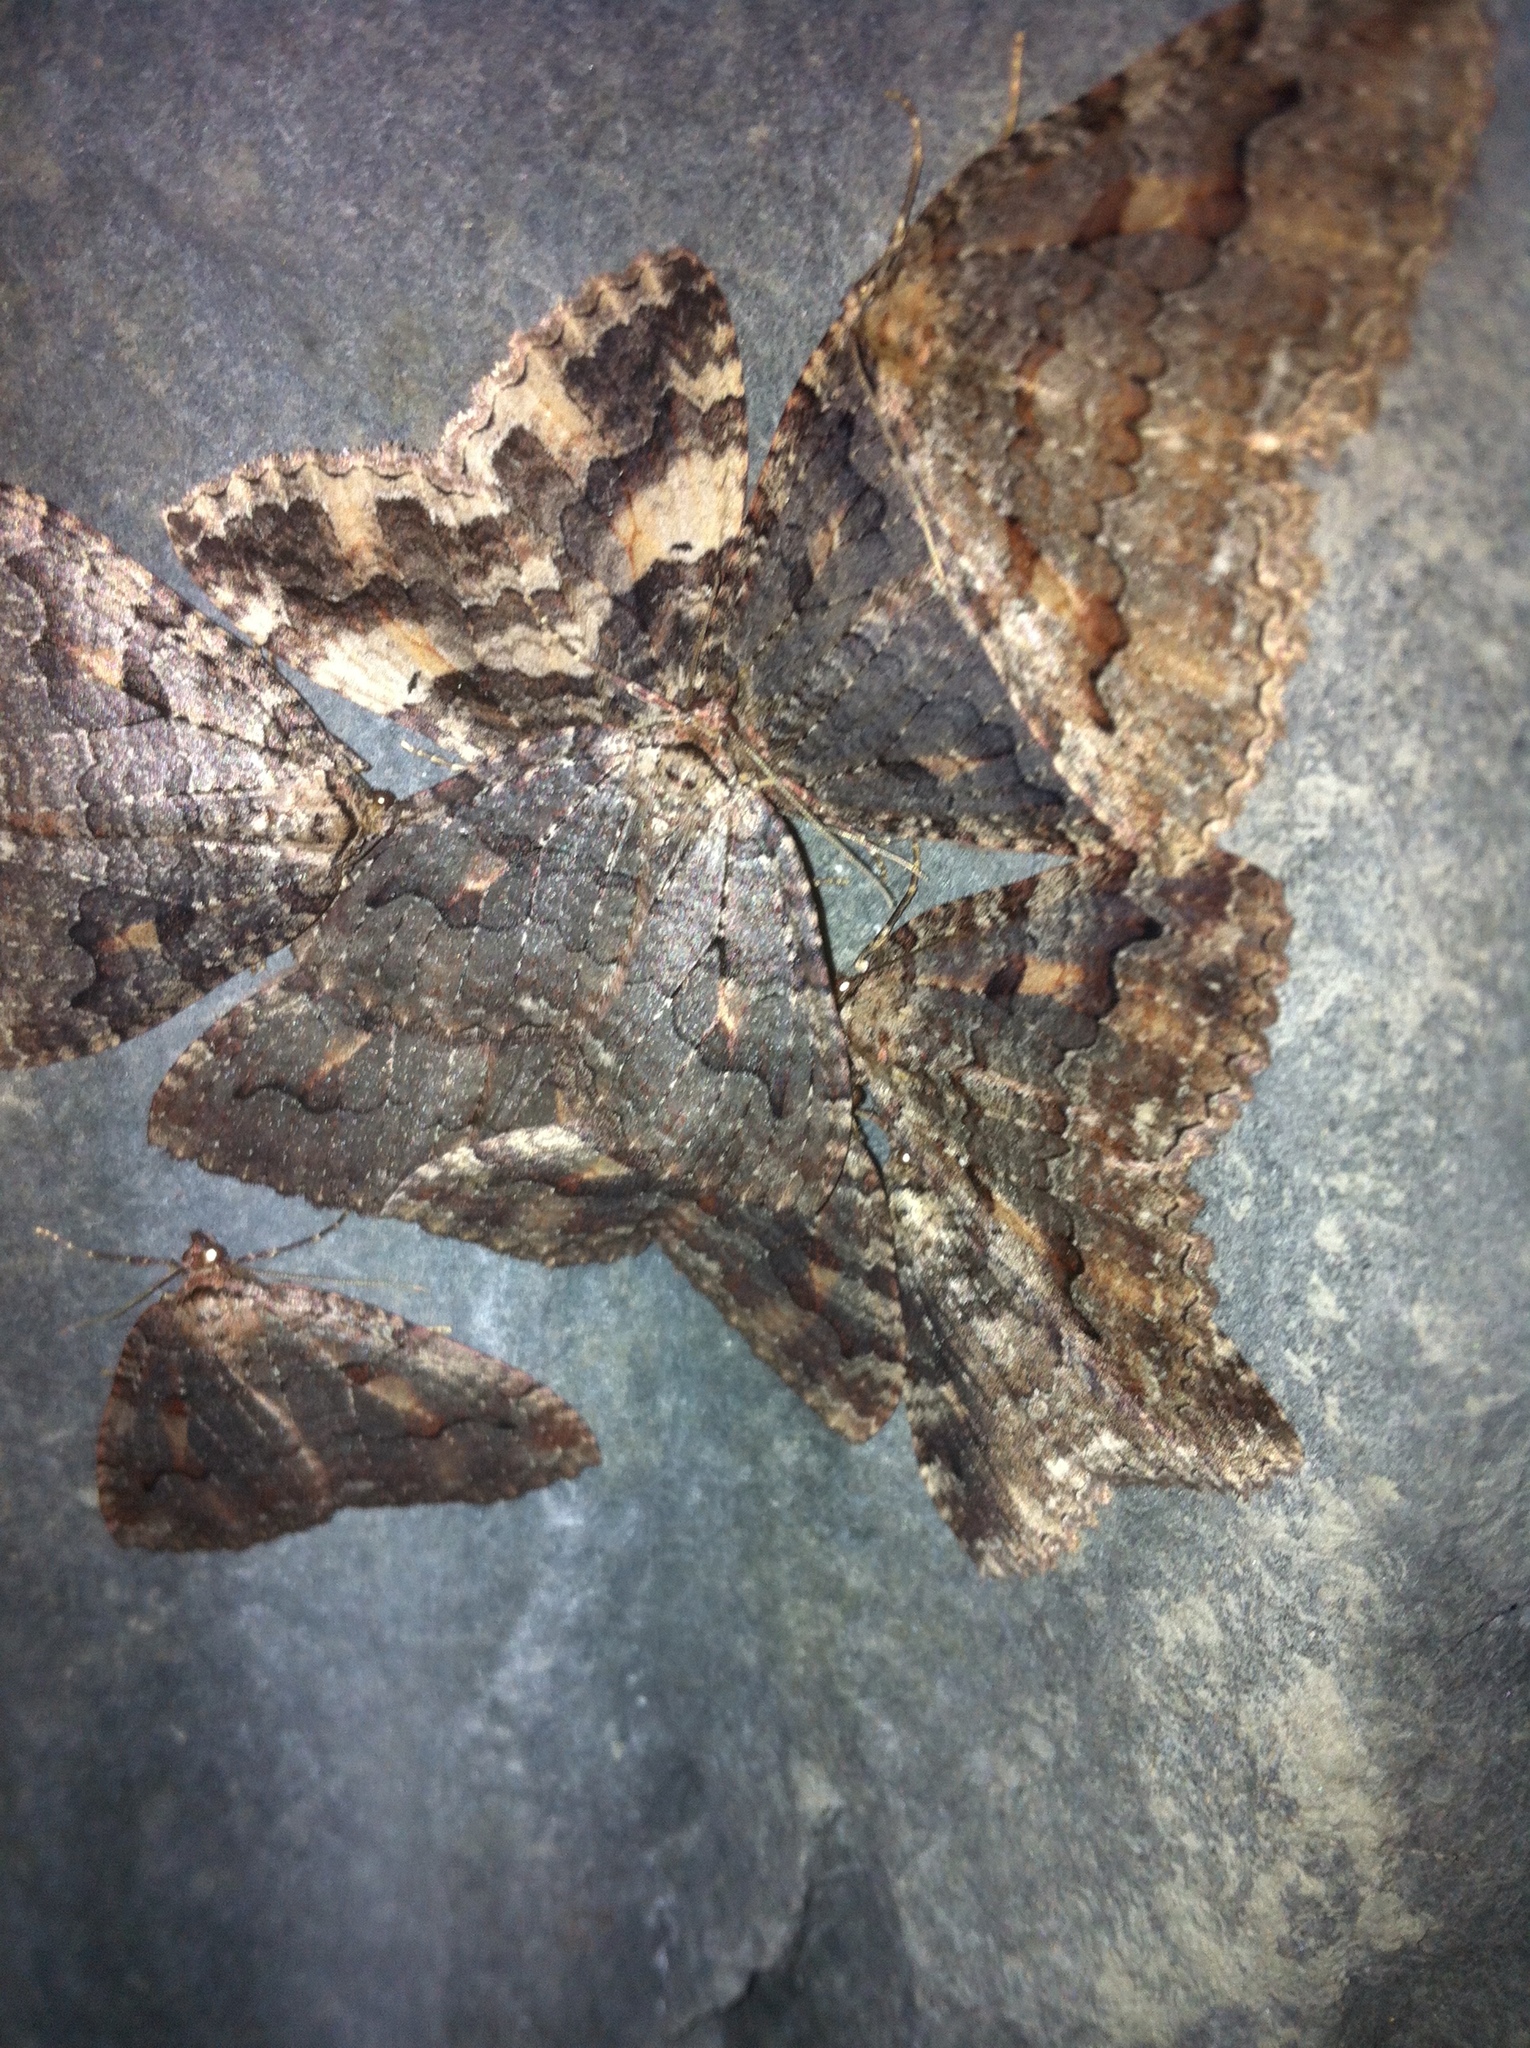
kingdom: Animalia
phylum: Arthropoda
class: Insecta
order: Lepidoptera
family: Geometridae
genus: Triphosa
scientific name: Triphosa haesitata
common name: Tissue moth
